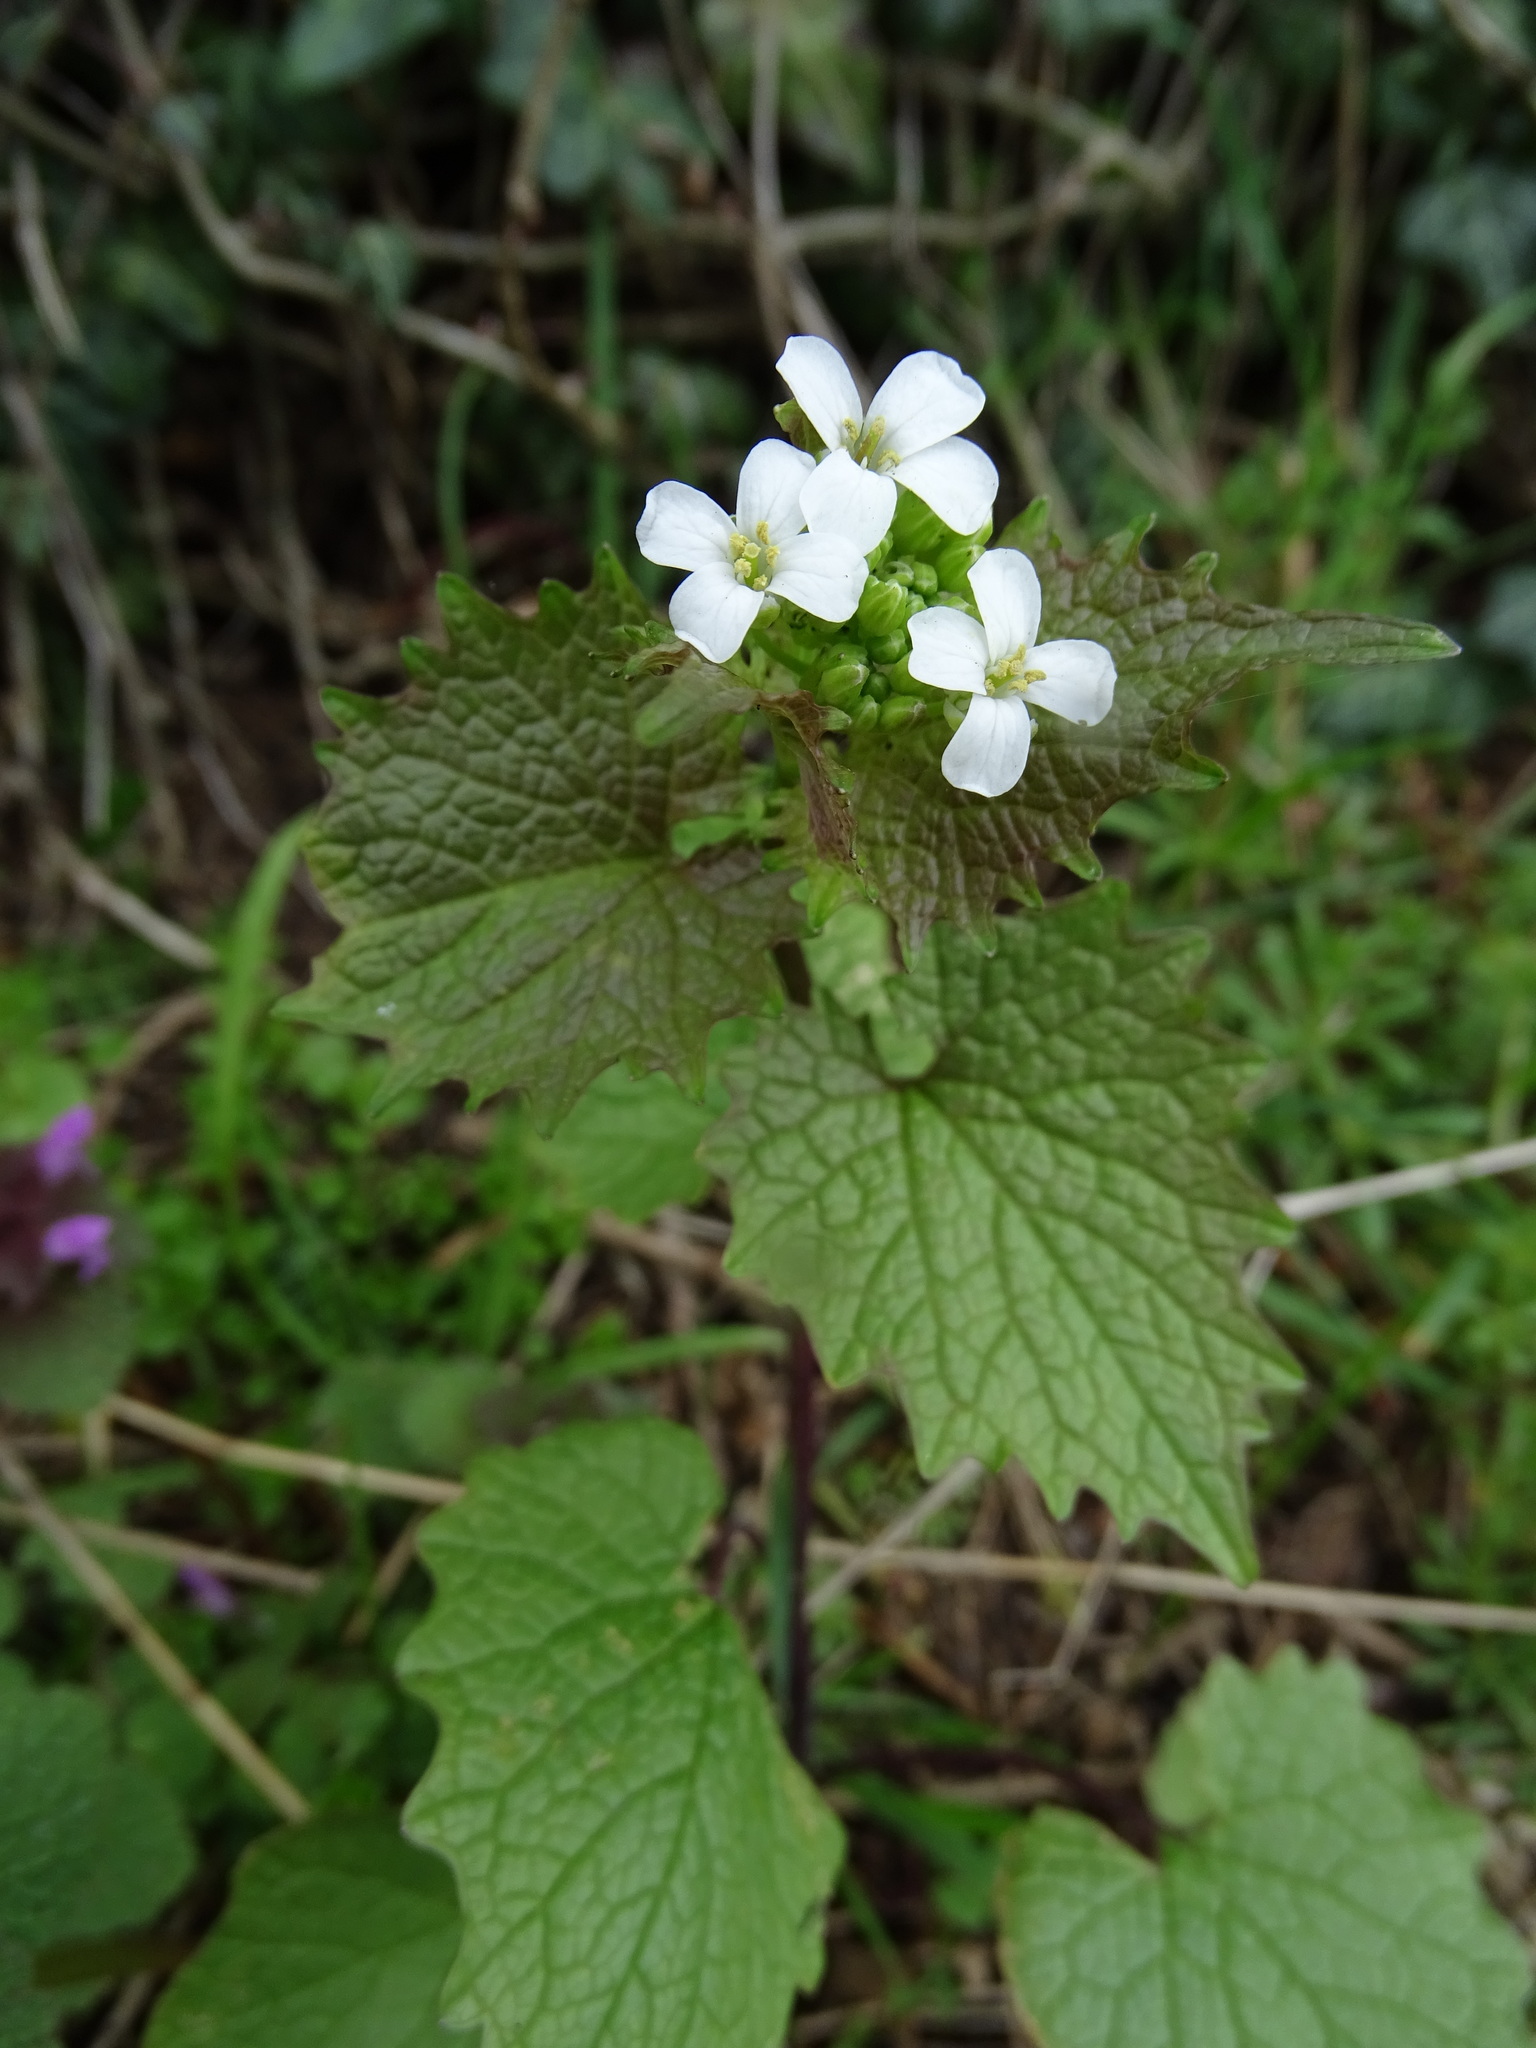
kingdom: Plantae
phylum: Tracheophyta
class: Magnoliopsida
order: Brassicales
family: Brassicaceae
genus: Alliaria
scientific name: Alliaria petiolata
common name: Garlic mustard
